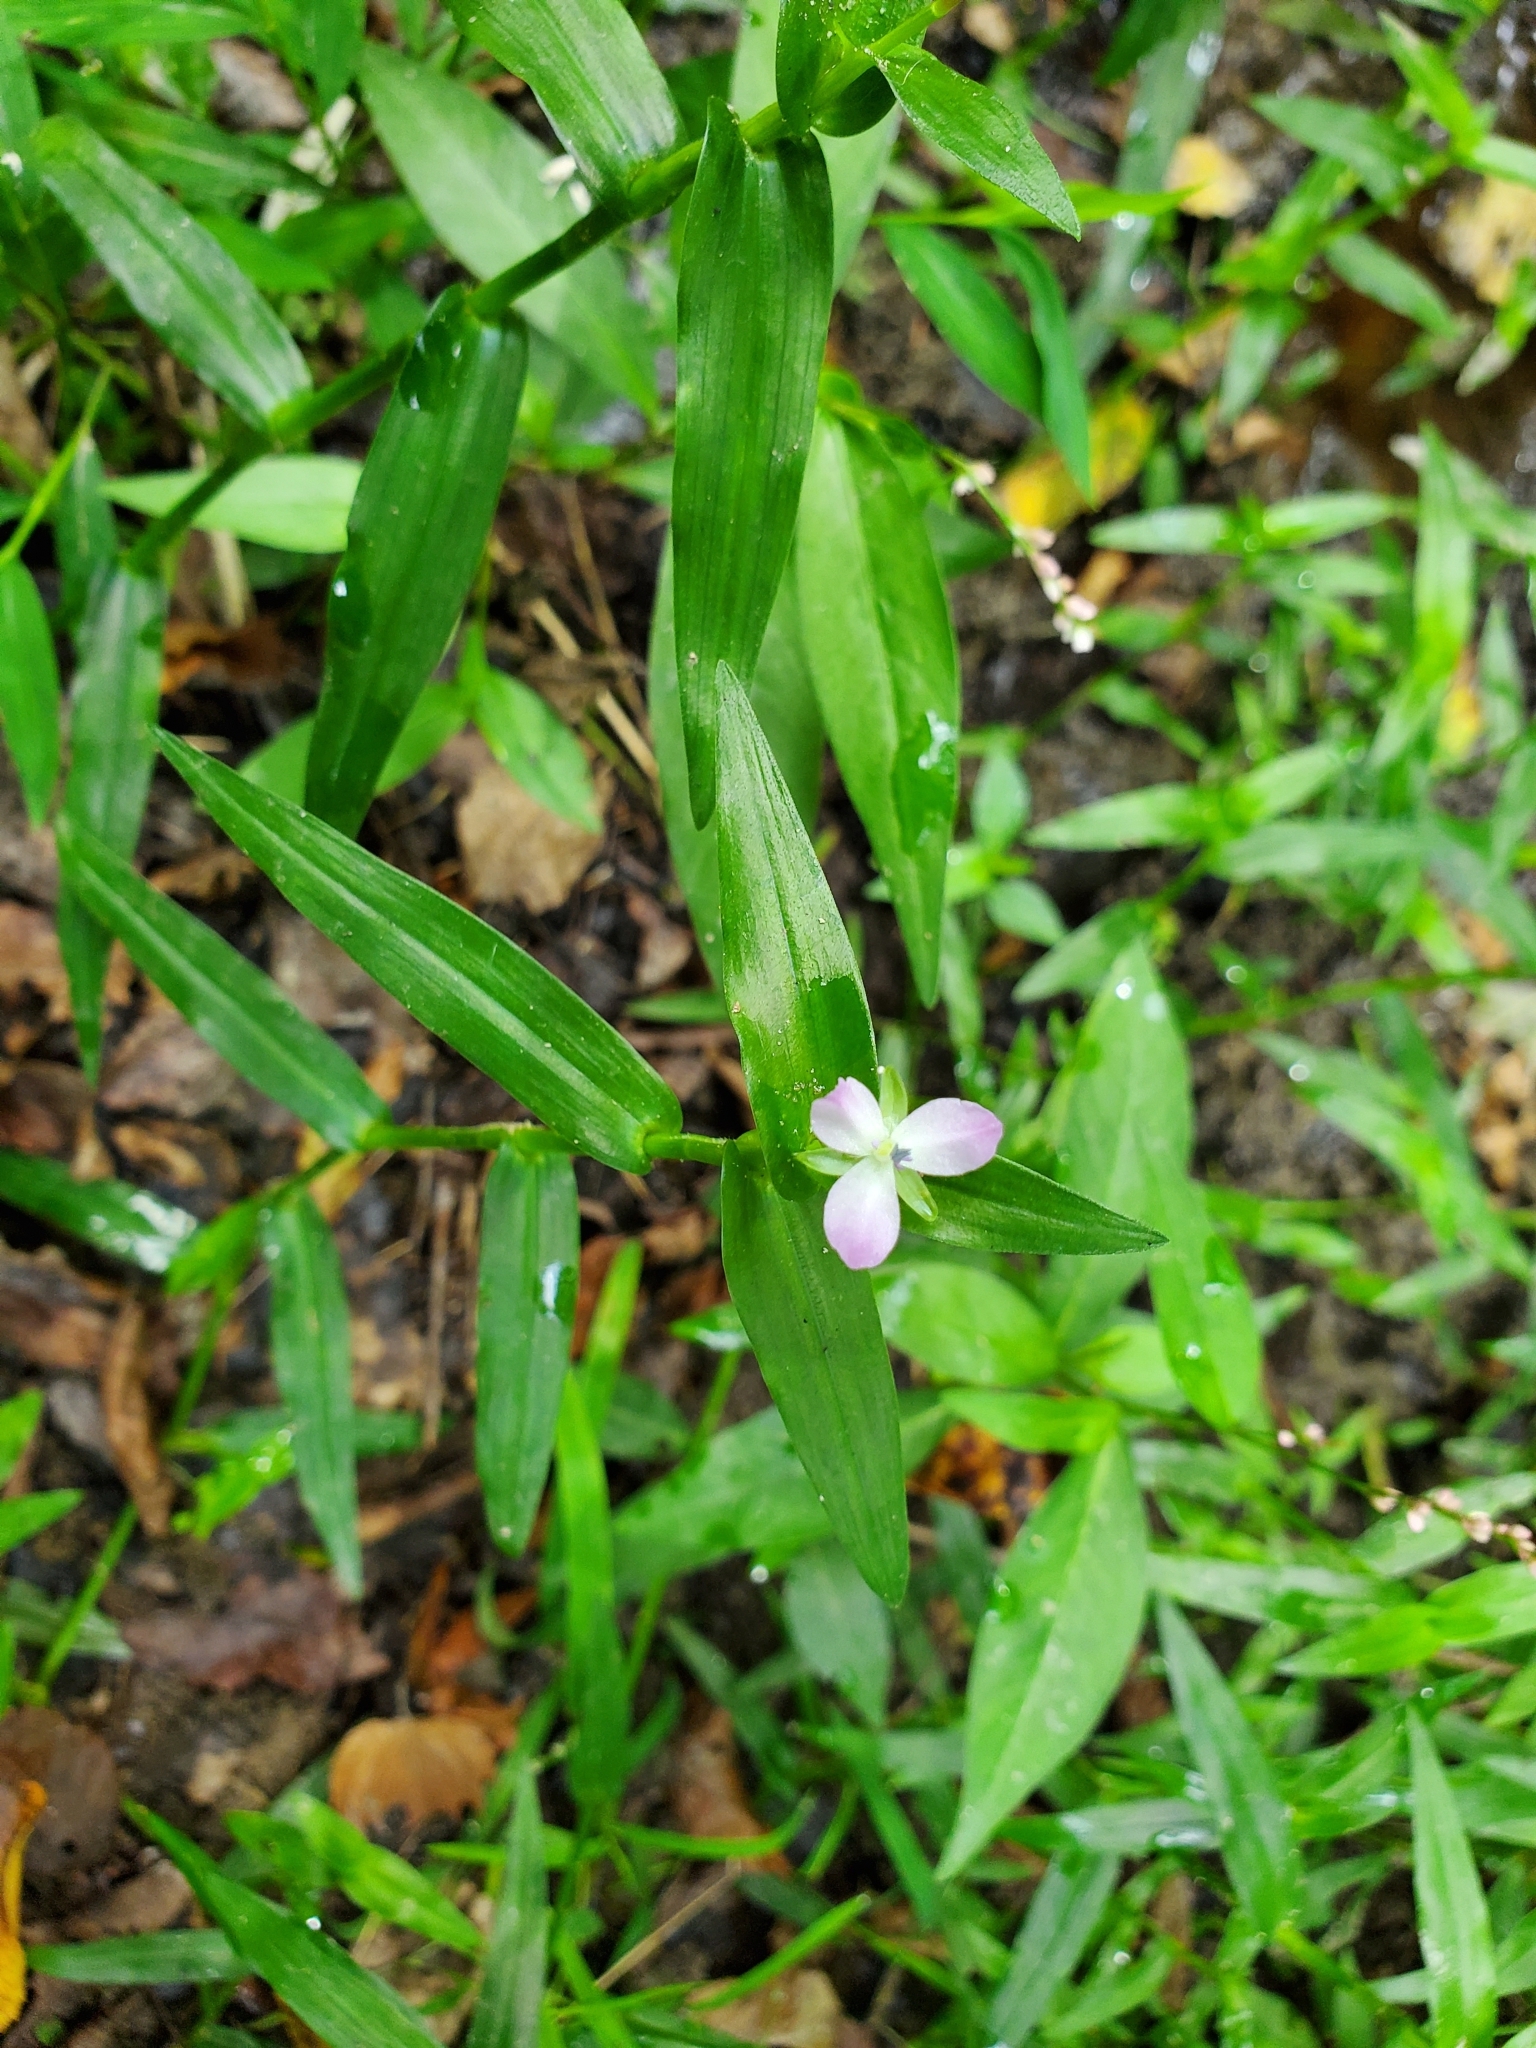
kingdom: Plantae
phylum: Tracheophyta
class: Liliopsida
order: Commelinales
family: Commelinaceae
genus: Murdannia
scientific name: Murdannia keisak
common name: Wartremoving herb
